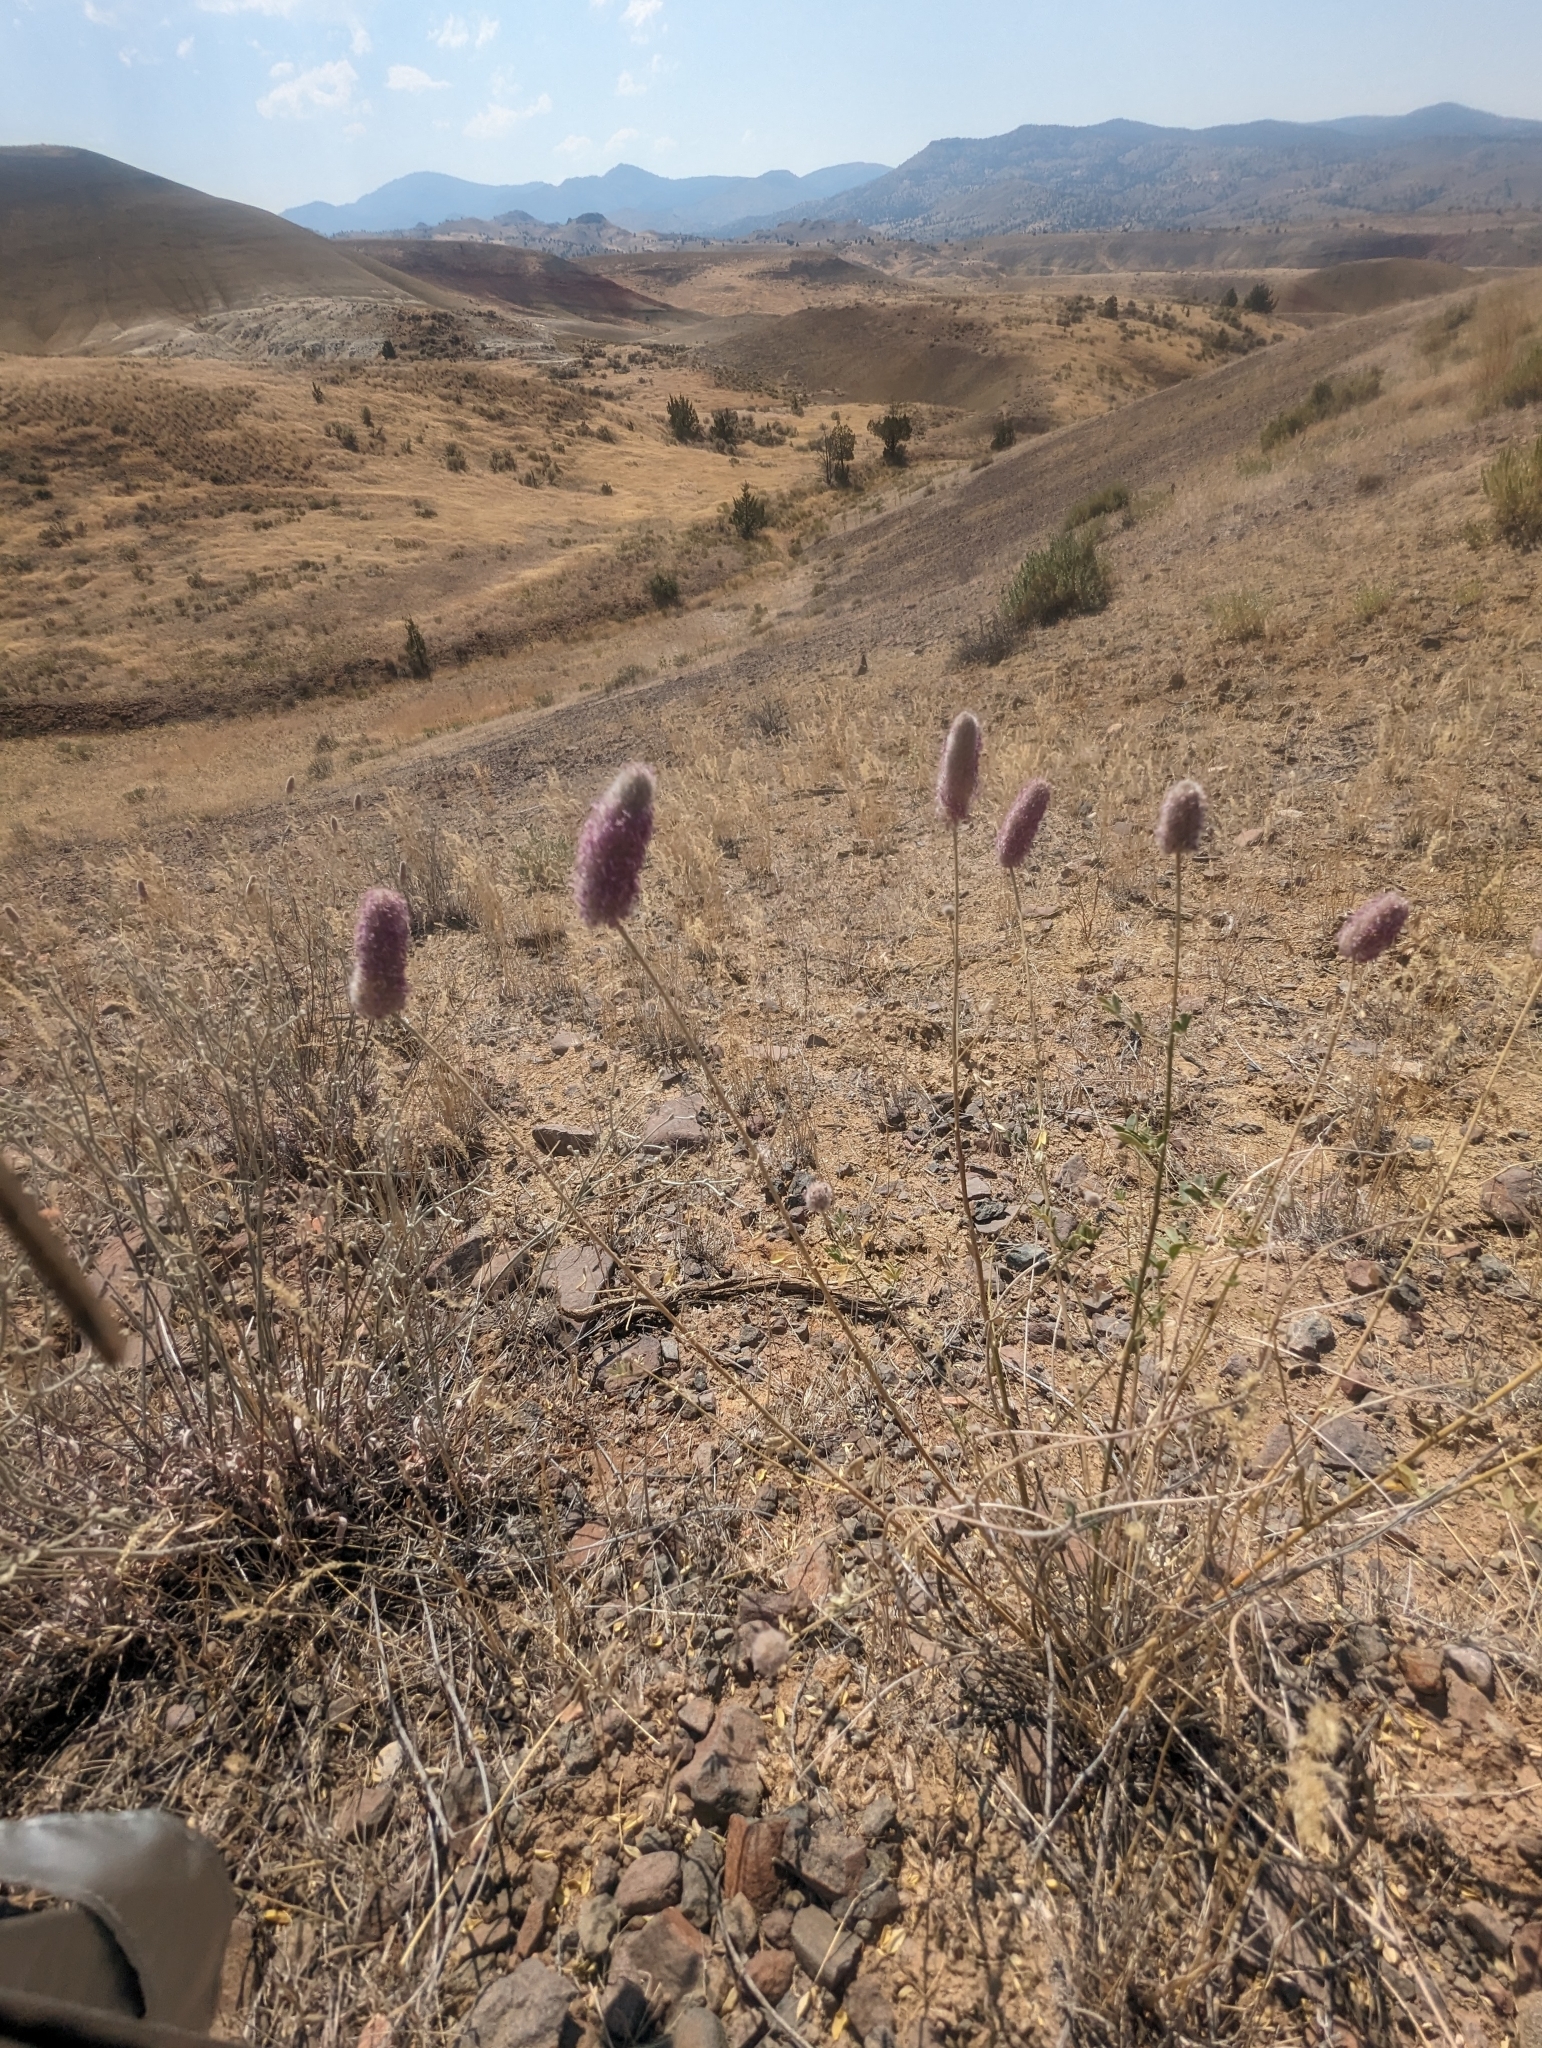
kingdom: Plantae
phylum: Tracheophyta
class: Magnoliopsida
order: Fabales
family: Fabaceae
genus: Dalea
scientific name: Dalea ornata
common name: Blue mountain prairie-clover
